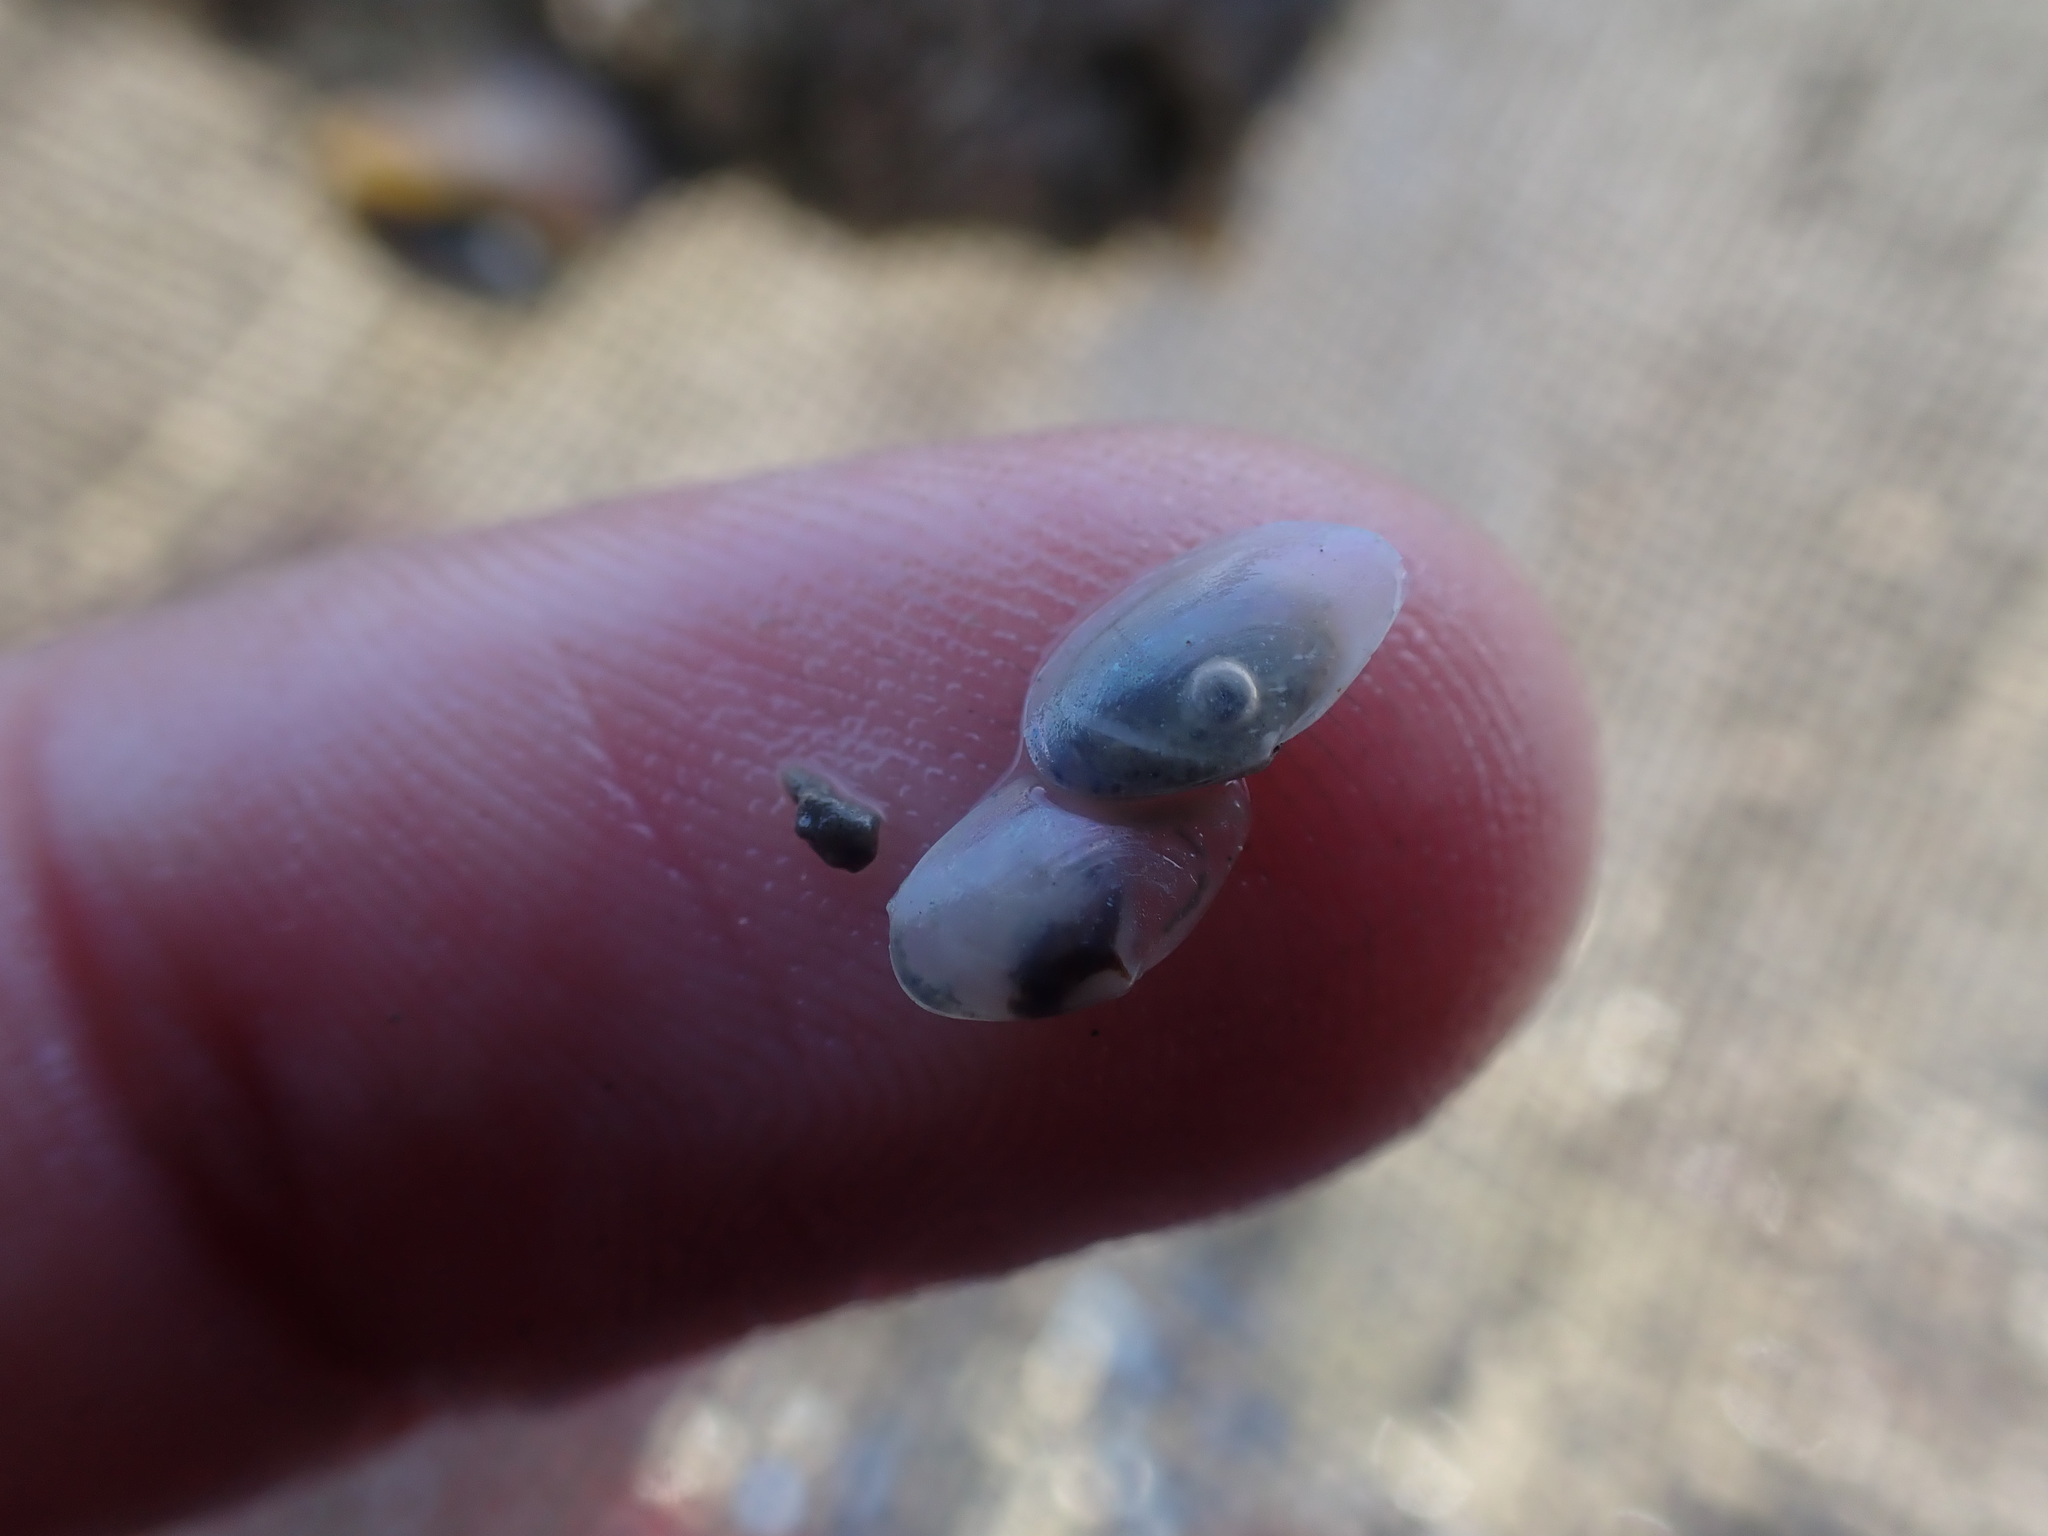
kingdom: Animalia
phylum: Mollusca
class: Bivalvia
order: Cardiida
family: Semelidae
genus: Theora
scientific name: Theora lubrica
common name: Asian semele
